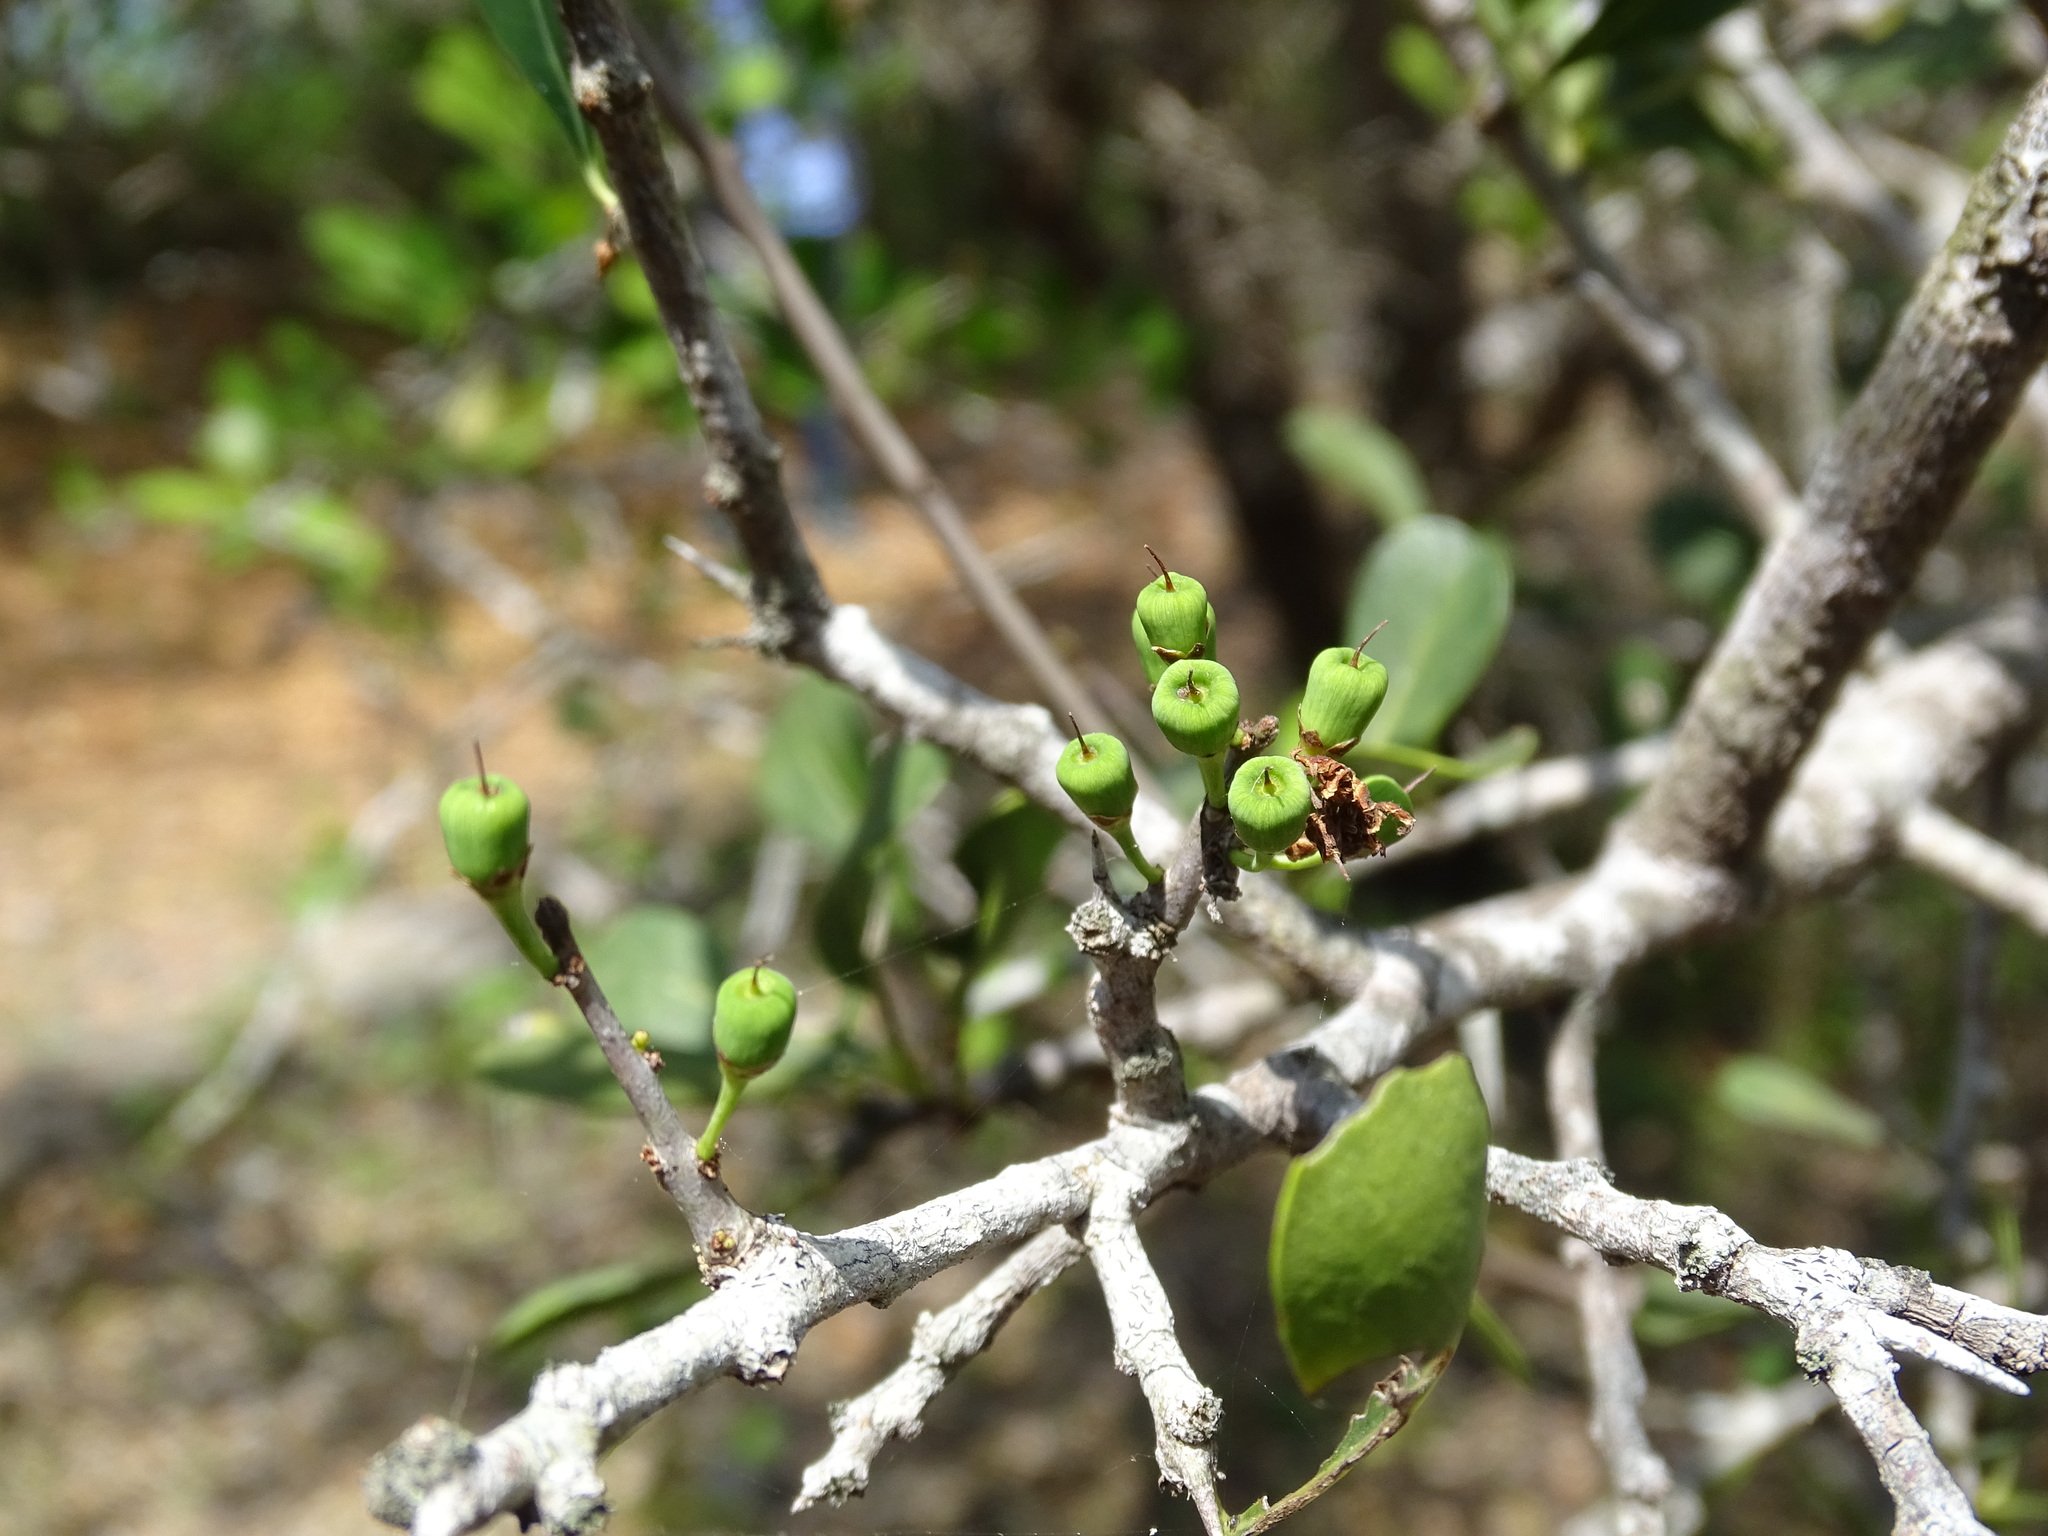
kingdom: Plantae
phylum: Tracheophyta
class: Magnoliopsida
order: Ericales
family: Sapotaceae
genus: Sideroxylon
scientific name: Sideroxylon celastrinum
